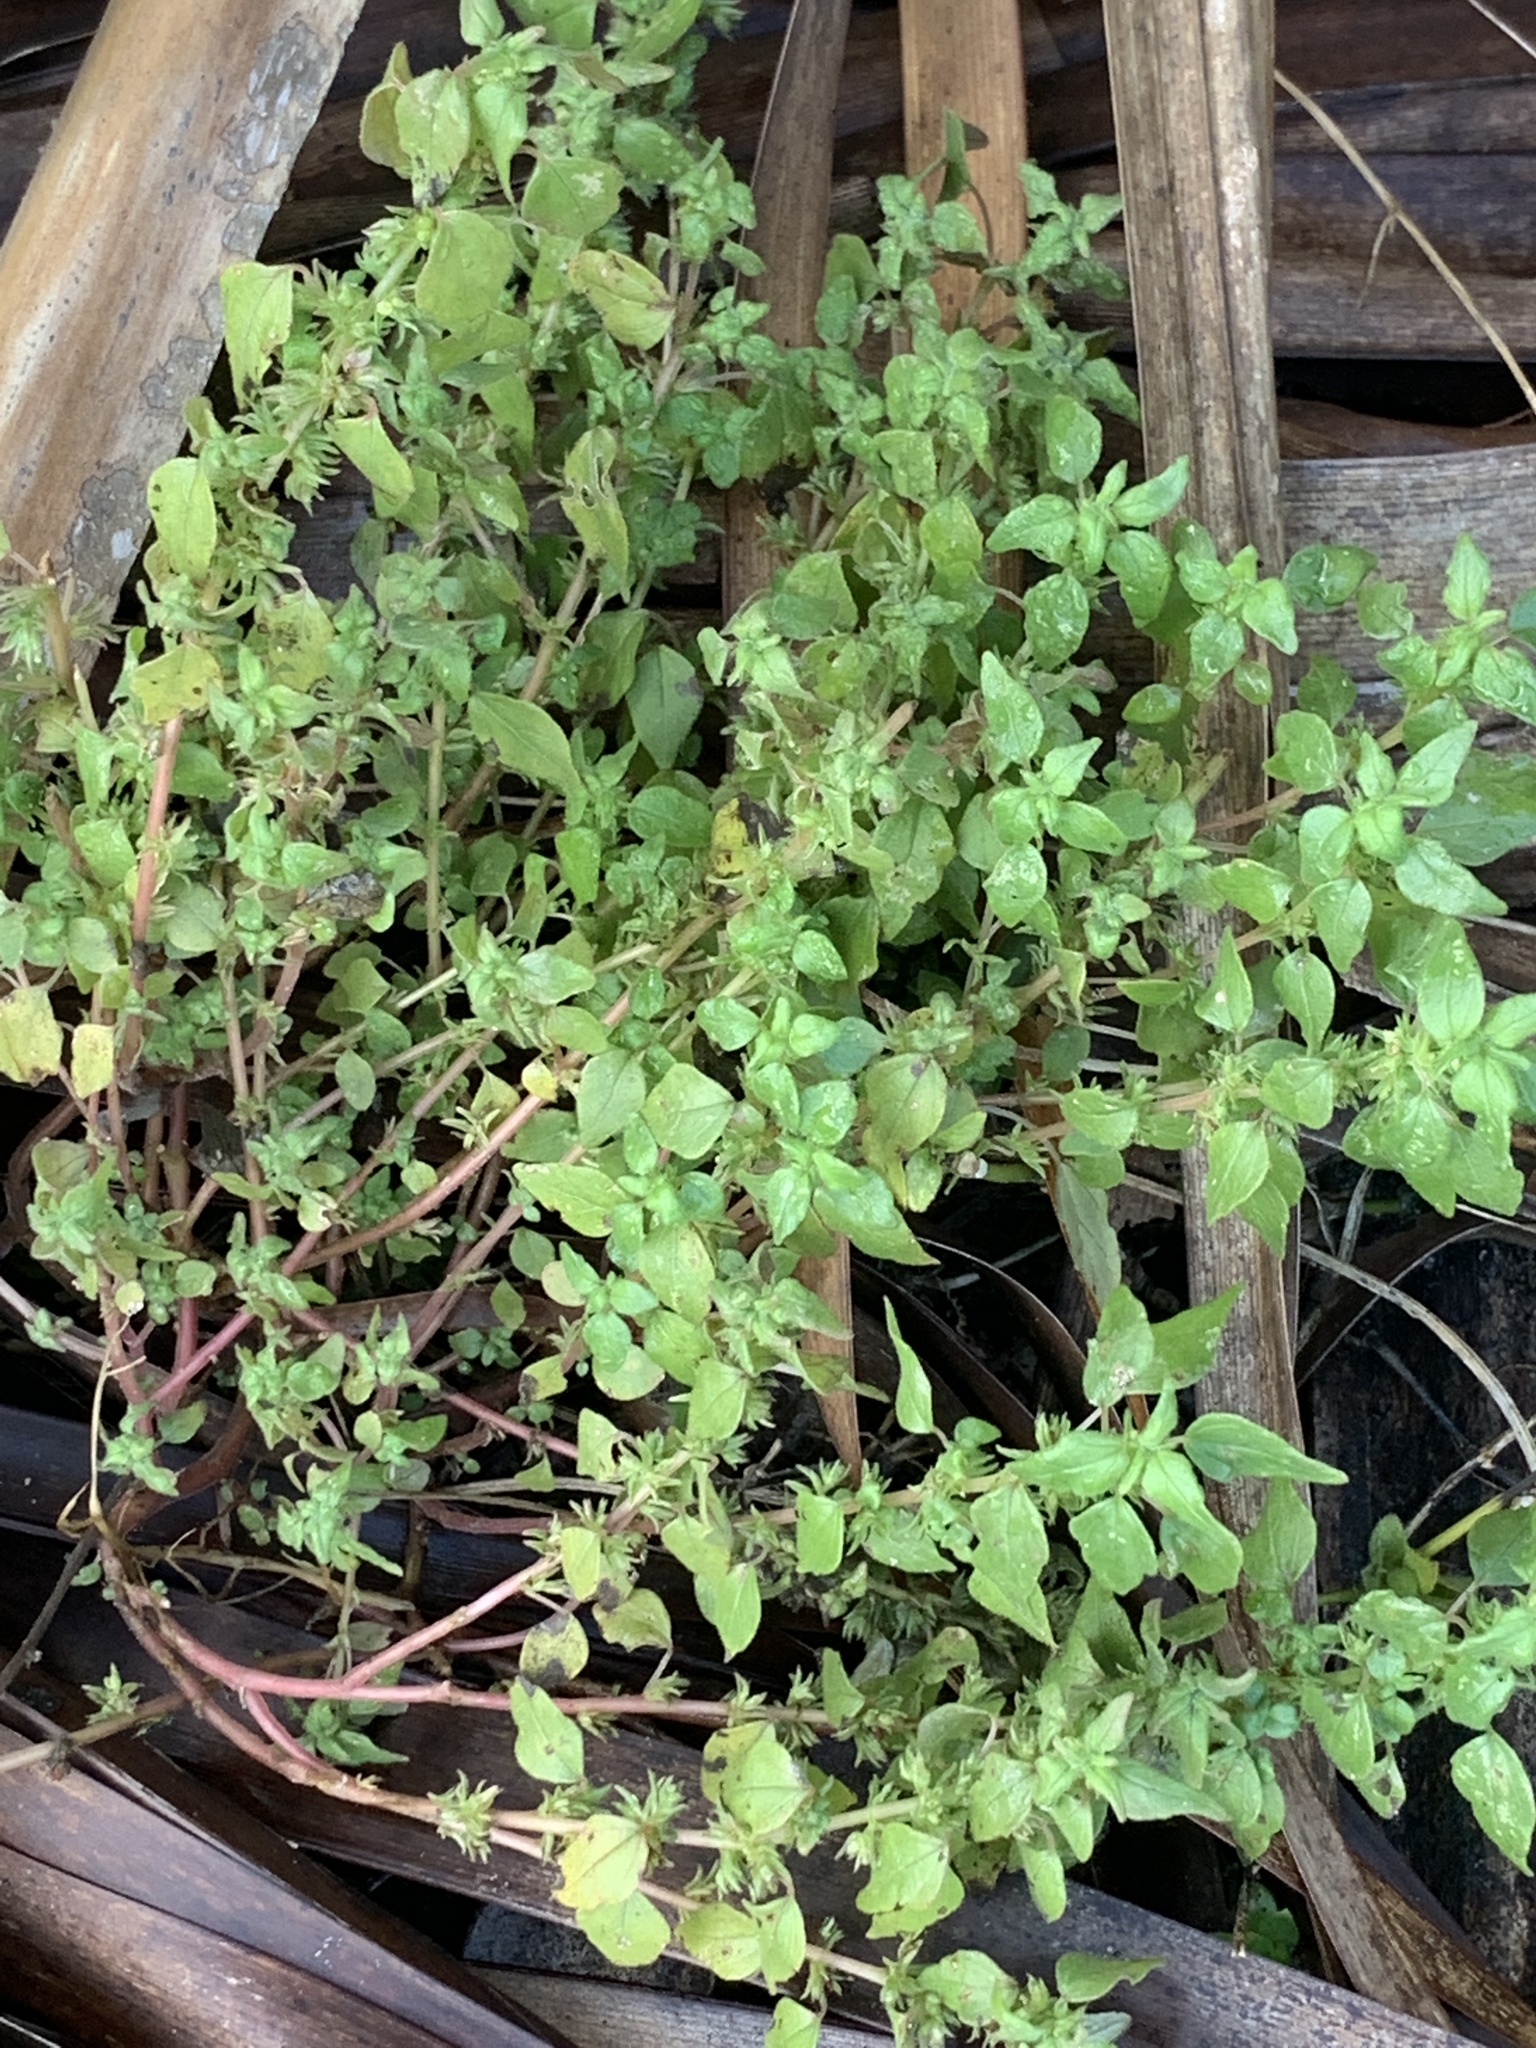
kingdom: Plantae
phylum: Tracheophyta
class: Magnoliopsida
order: Rosales
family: Urticaceae
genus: Parietaria
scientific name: Parietaria floridana
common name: Florida pellitory
